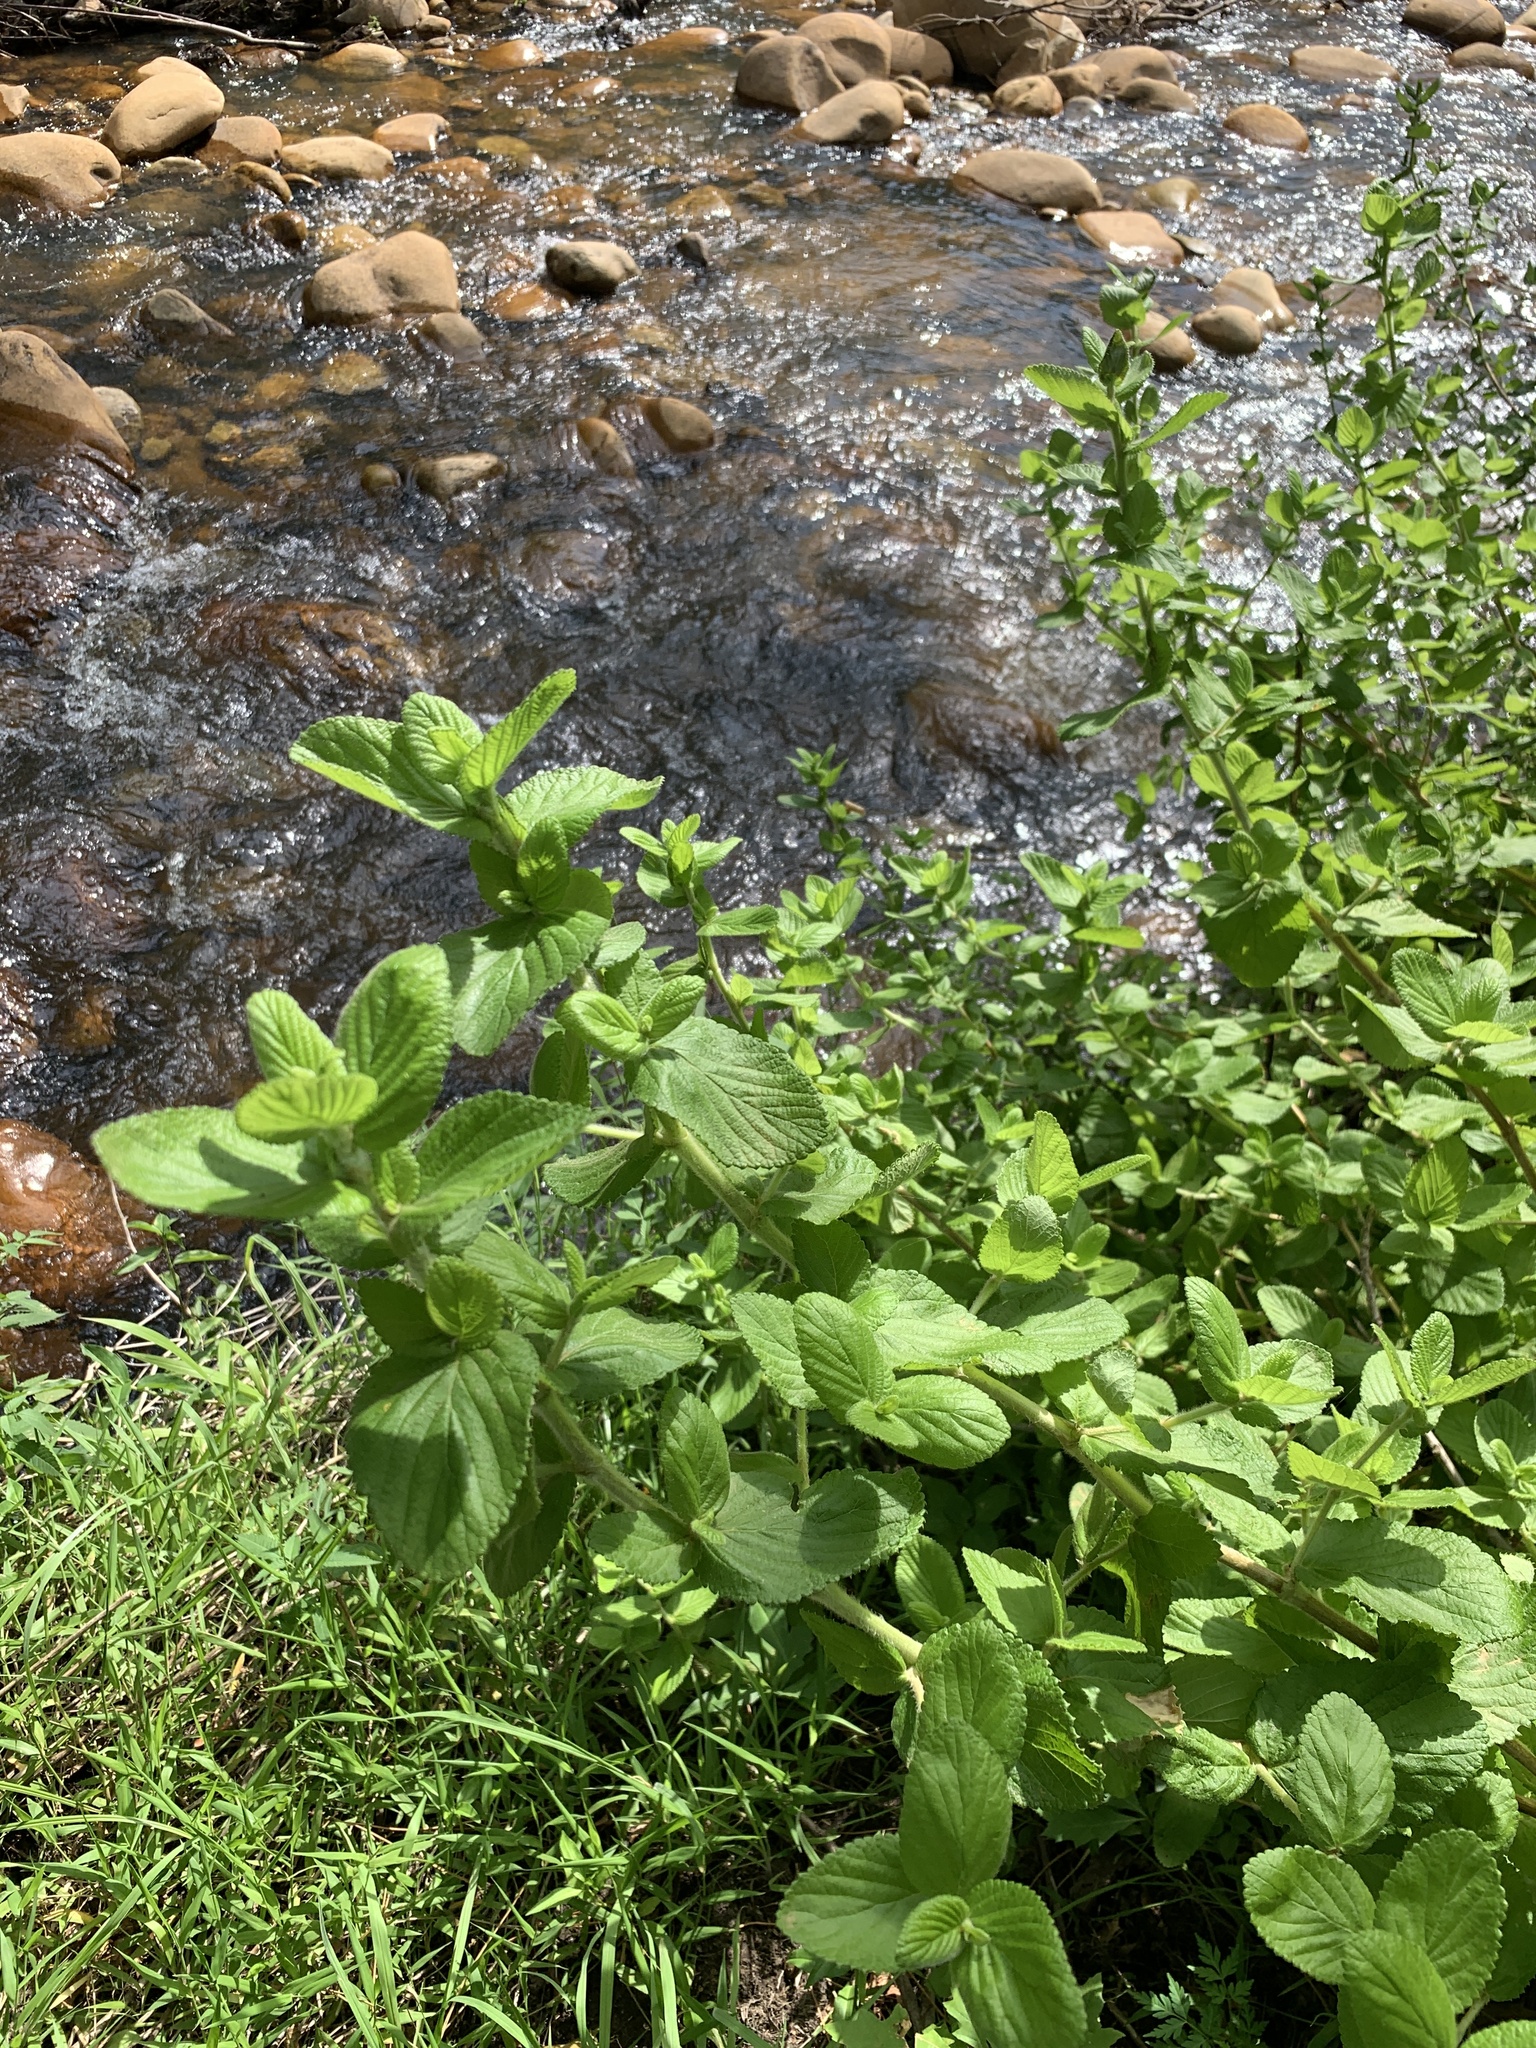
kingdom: Plantae
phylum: Tracheophyta
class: Magnoliopsida
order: Rosales
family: Rosaceae
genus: Cliffortia
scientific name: Cliffortia odorata
